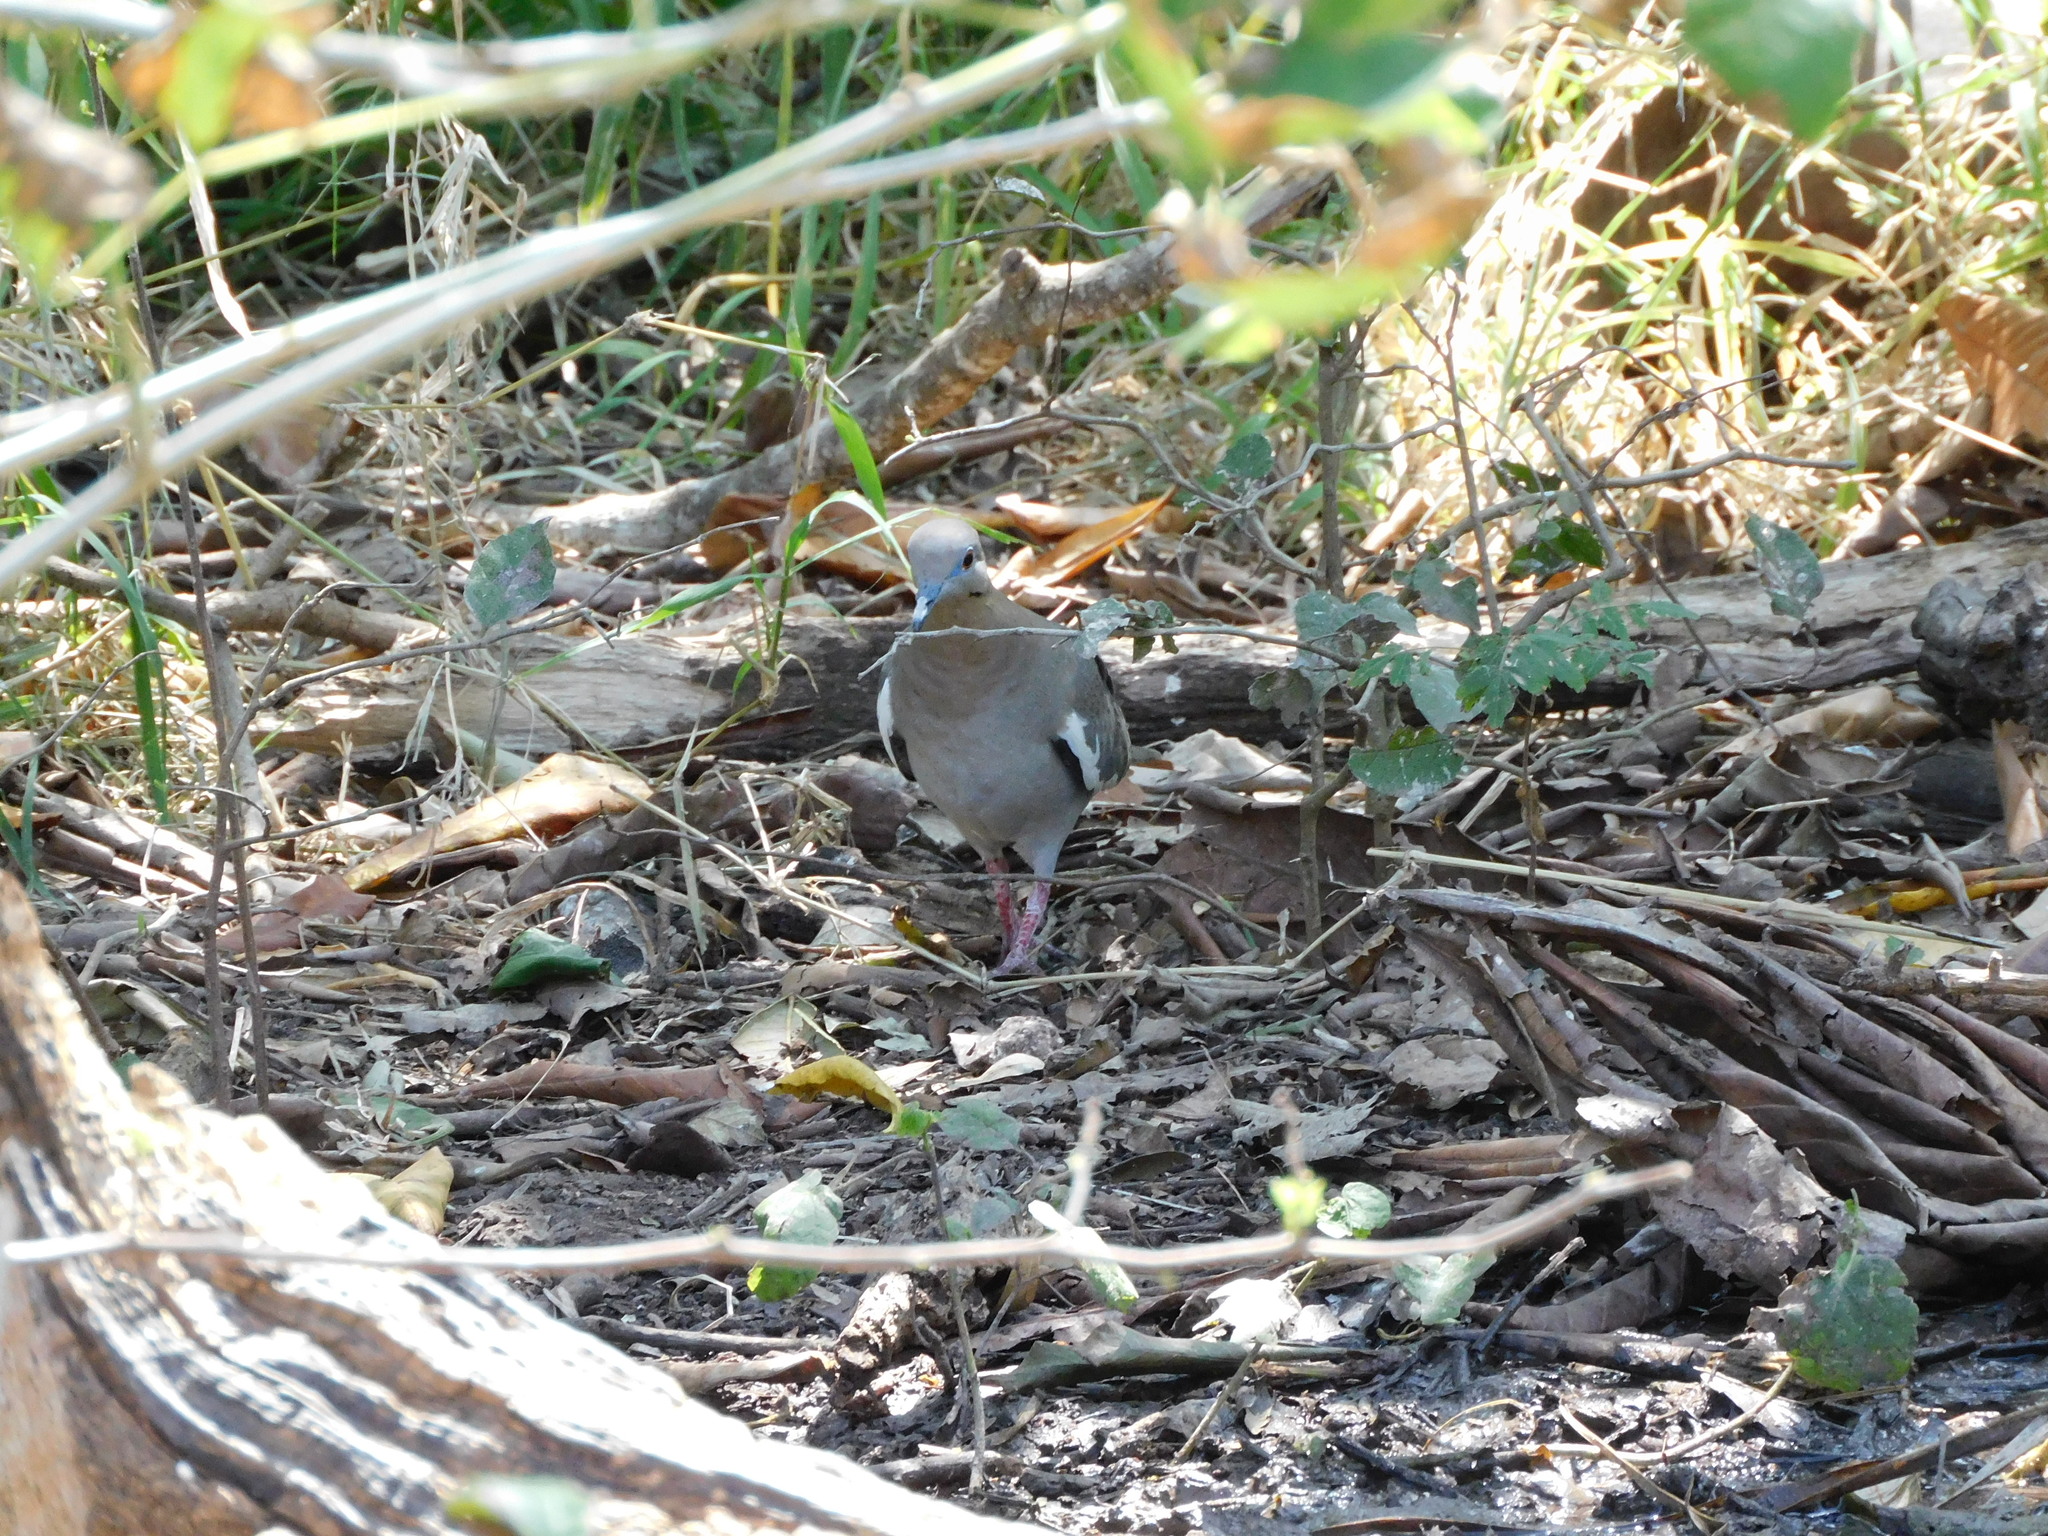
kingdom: Animalia
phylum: Chordata
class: Aves
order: Columbiformes
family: Columbidae
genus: Zenaida
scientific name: Zenaida asiatica
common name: White-winged dove
